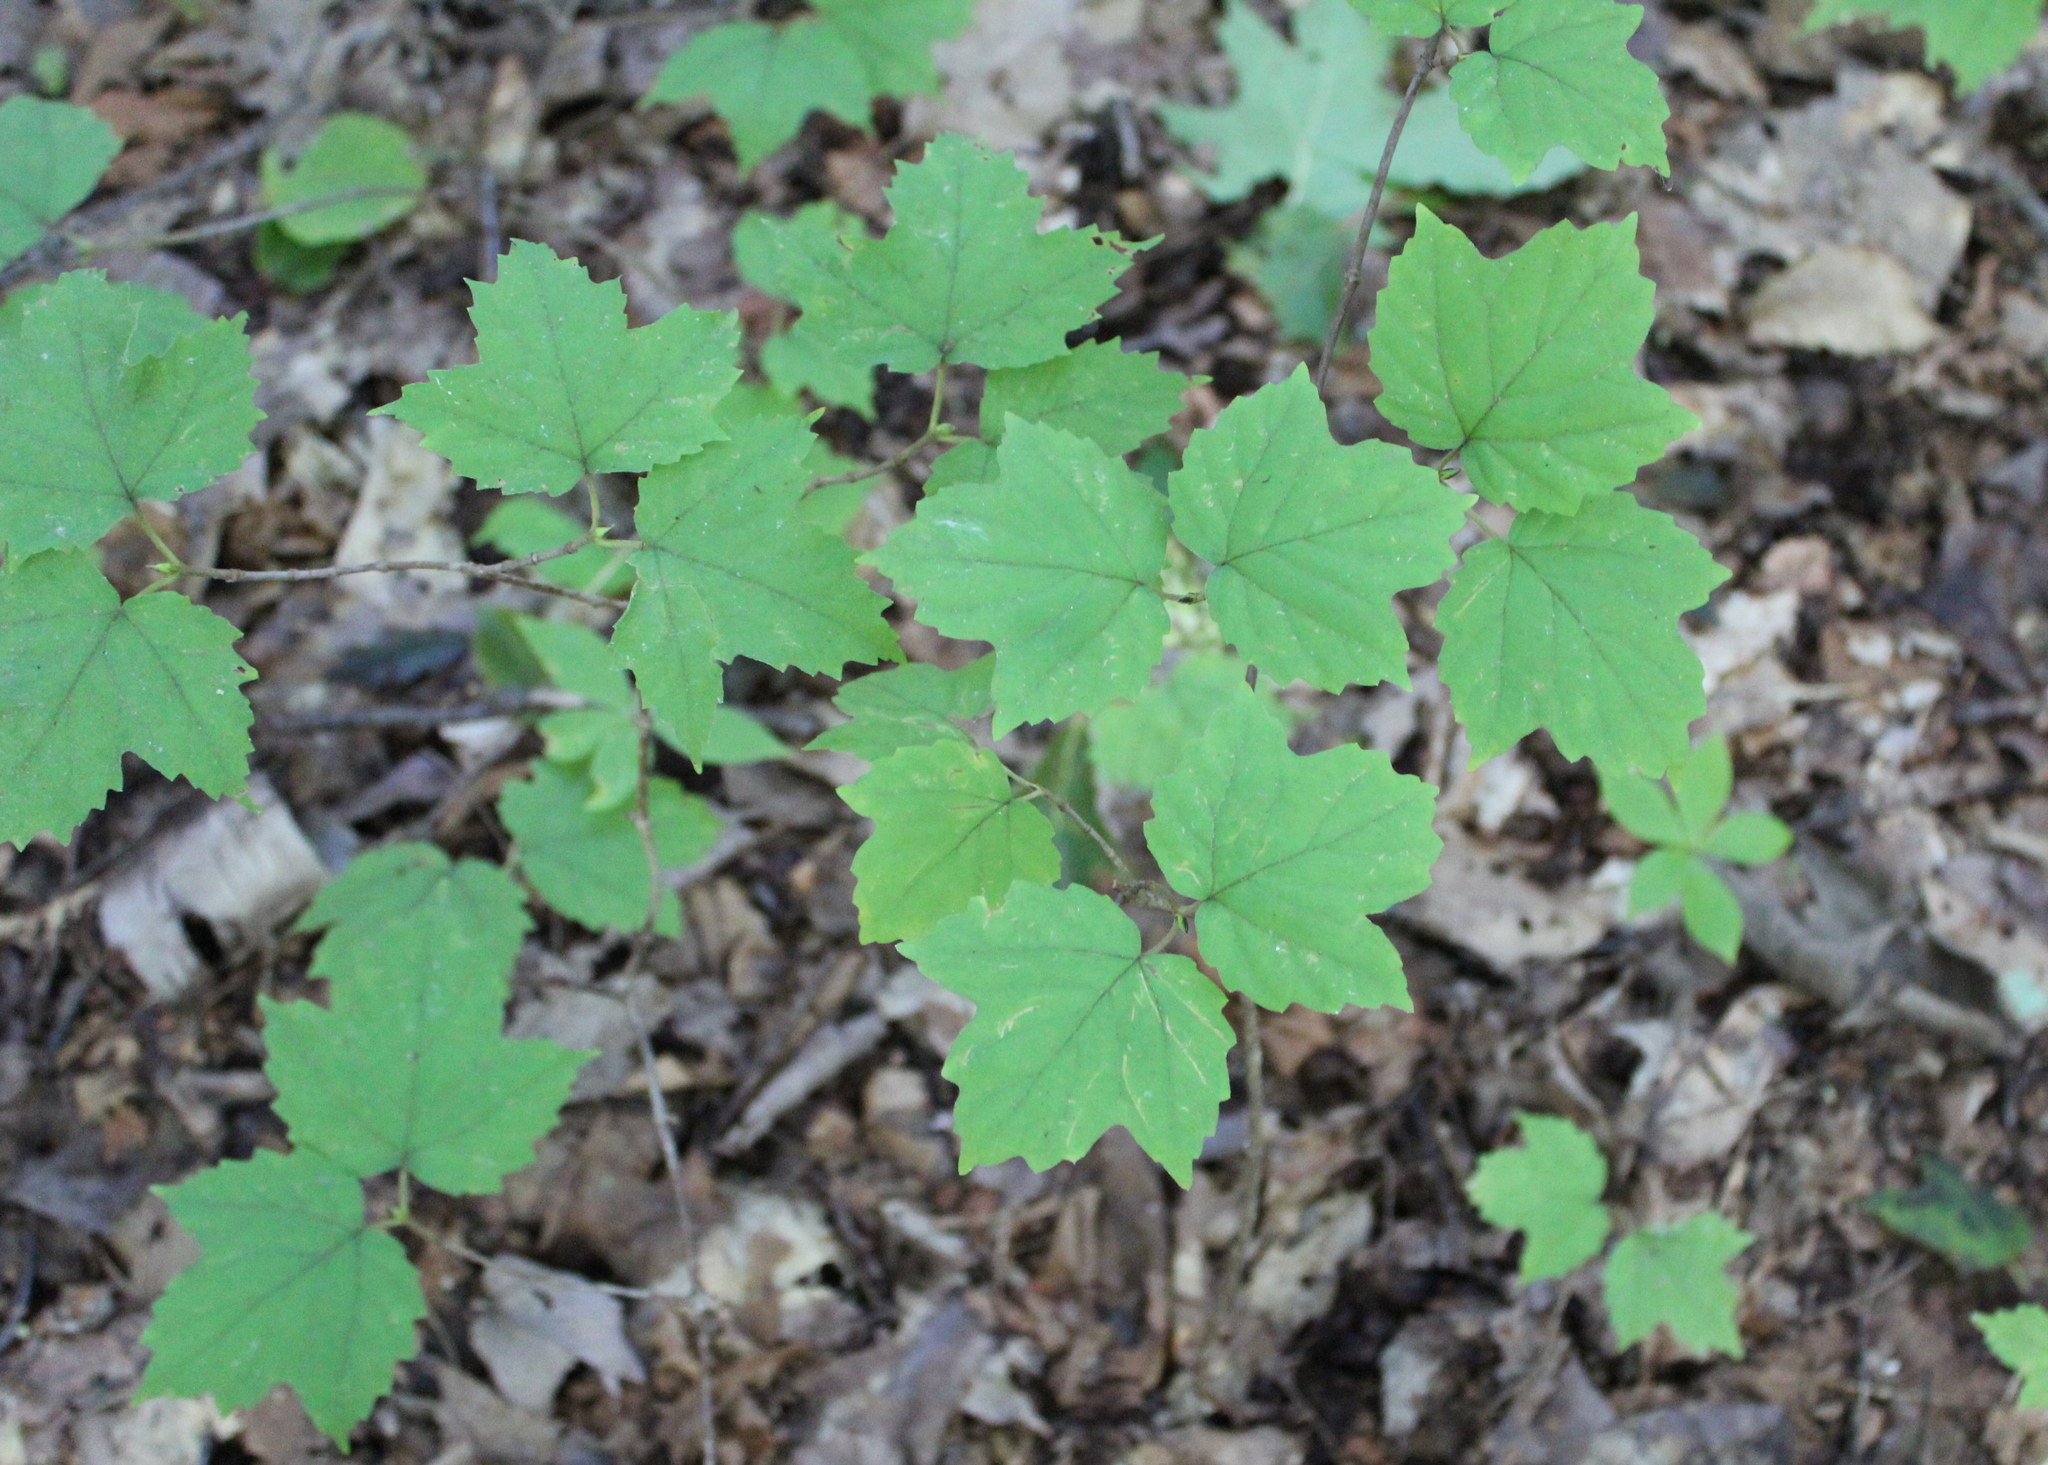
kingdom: Plantae
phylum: Tracheophyta
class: Magnoliopsida
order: Dipsacales
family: Viburnaceae
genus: Viburnum
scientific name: Viburnum acerifolium
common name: Dockmackie
